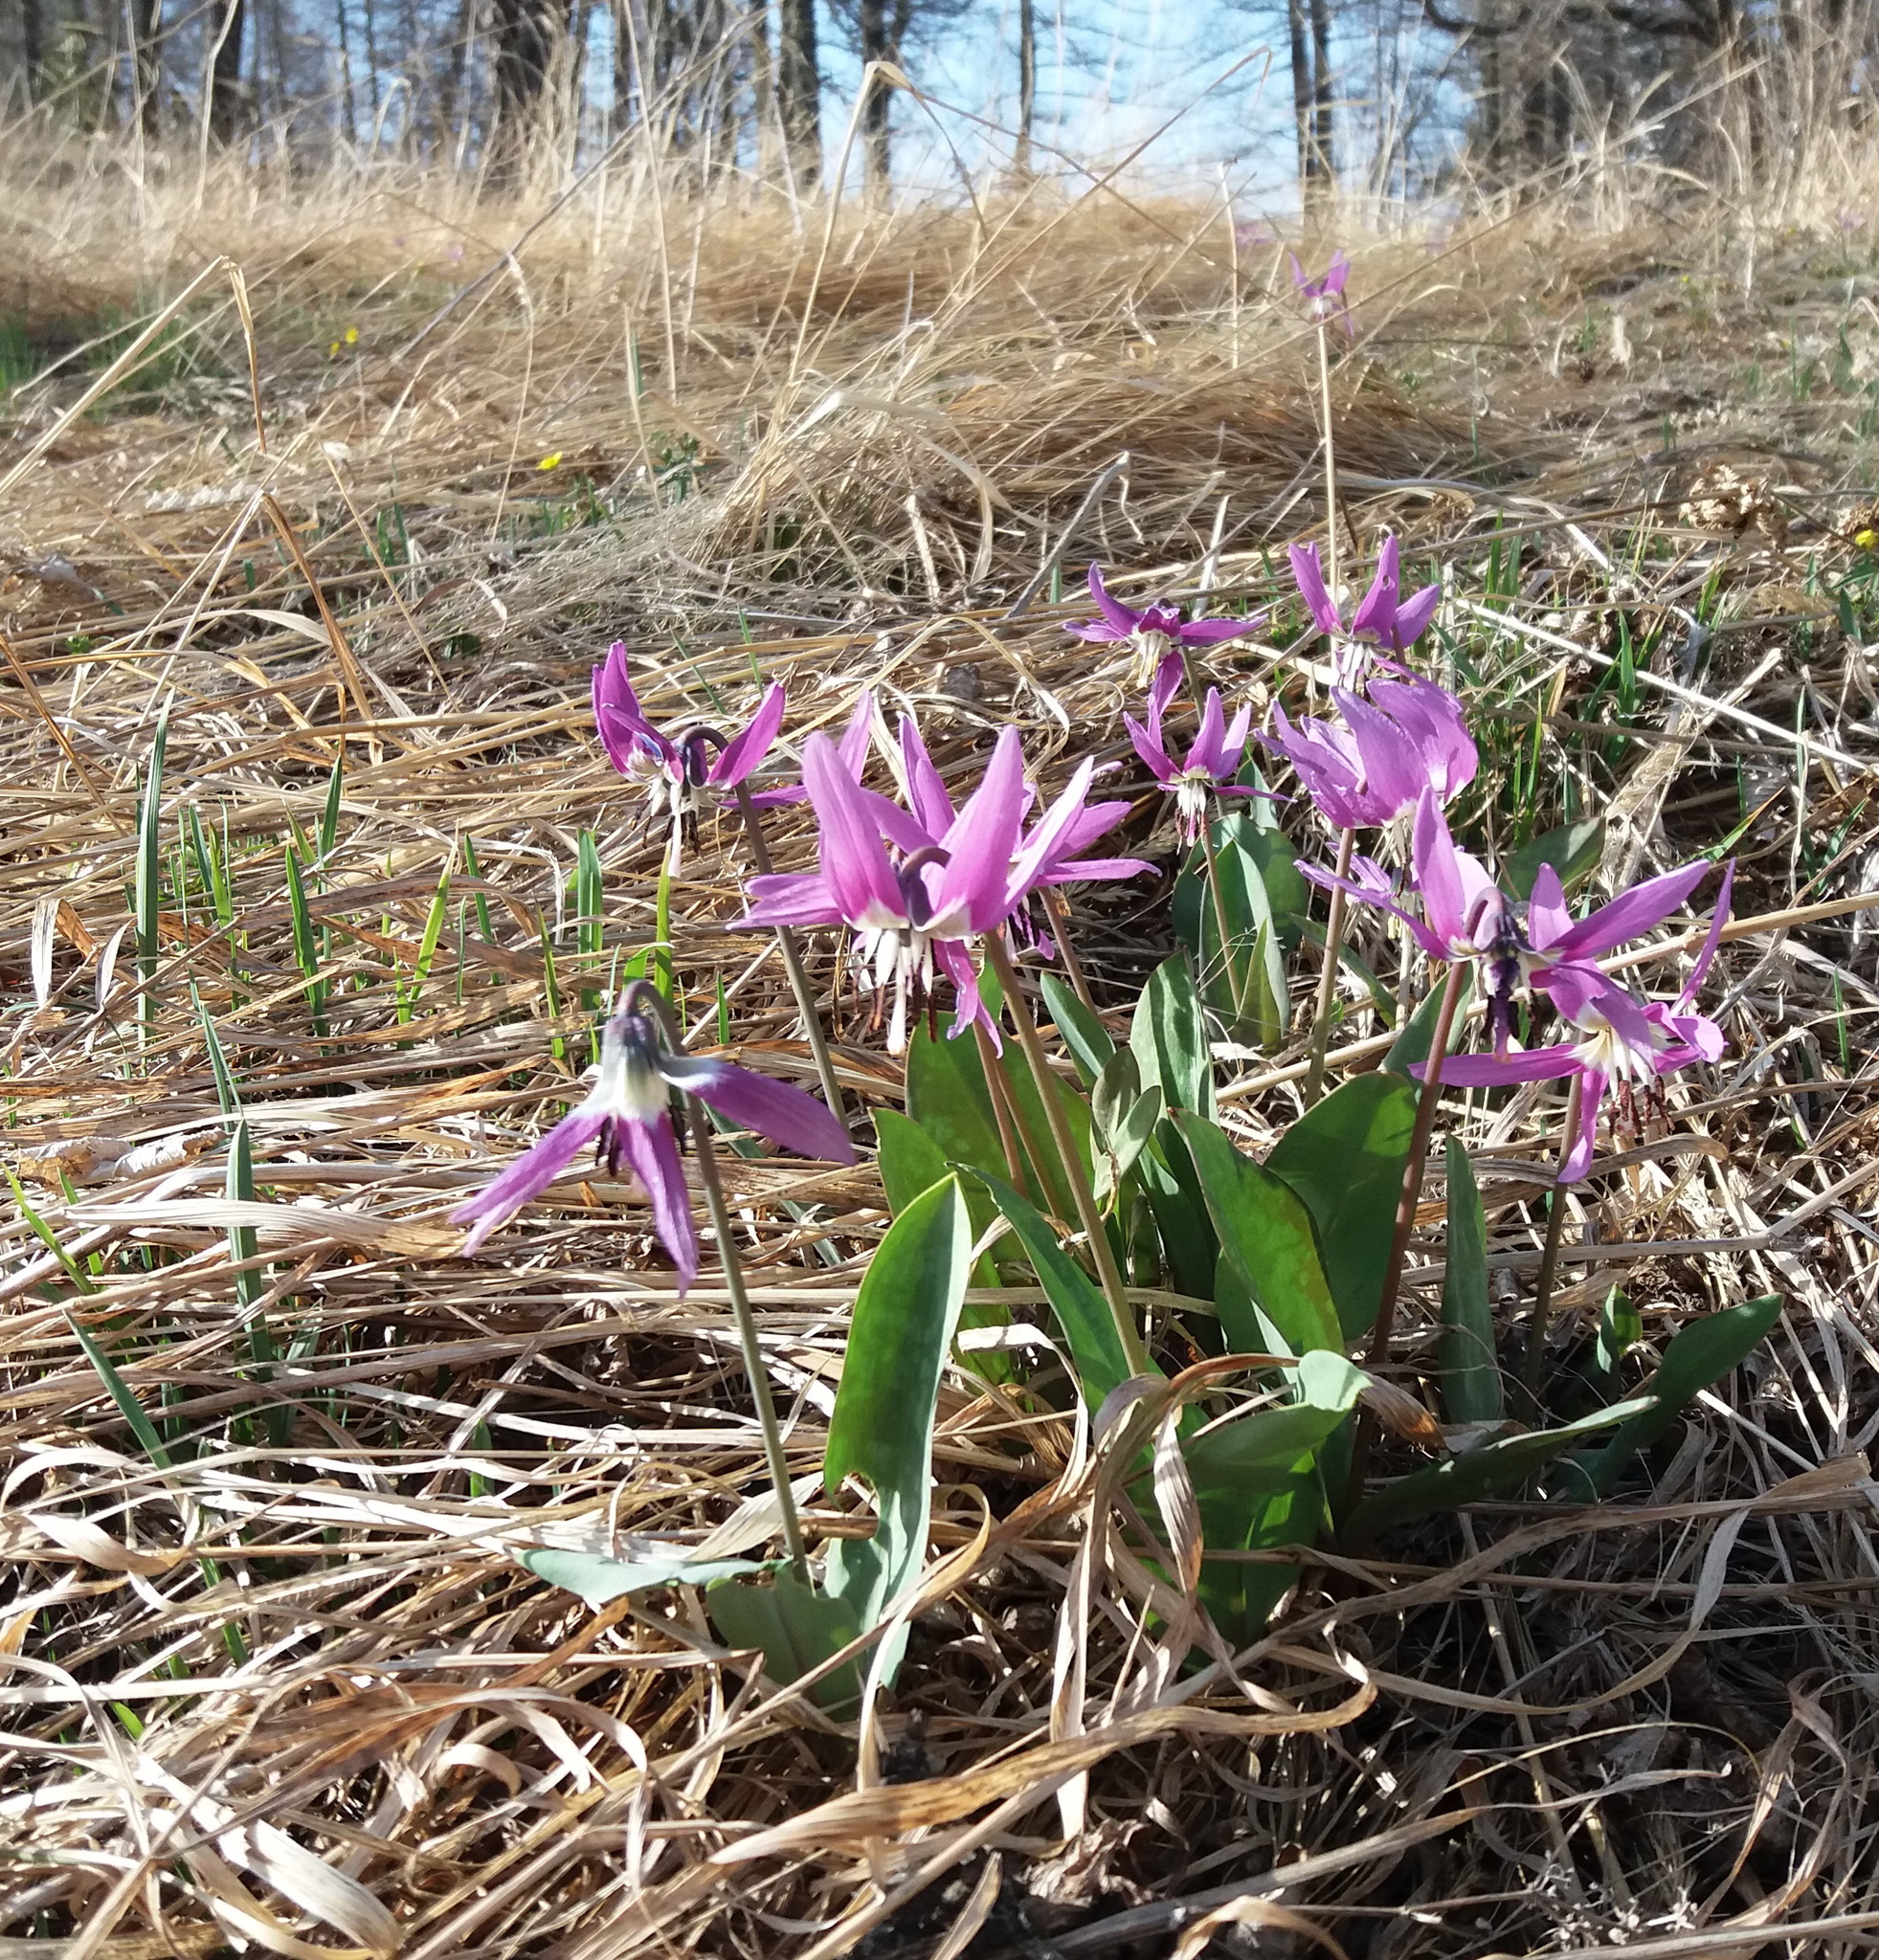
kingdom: Plantae
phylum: Tracheophyta
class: Liliopsida
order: Liliales
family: Liliaceae
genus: Erythronium
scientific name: Erythronium sulevii
